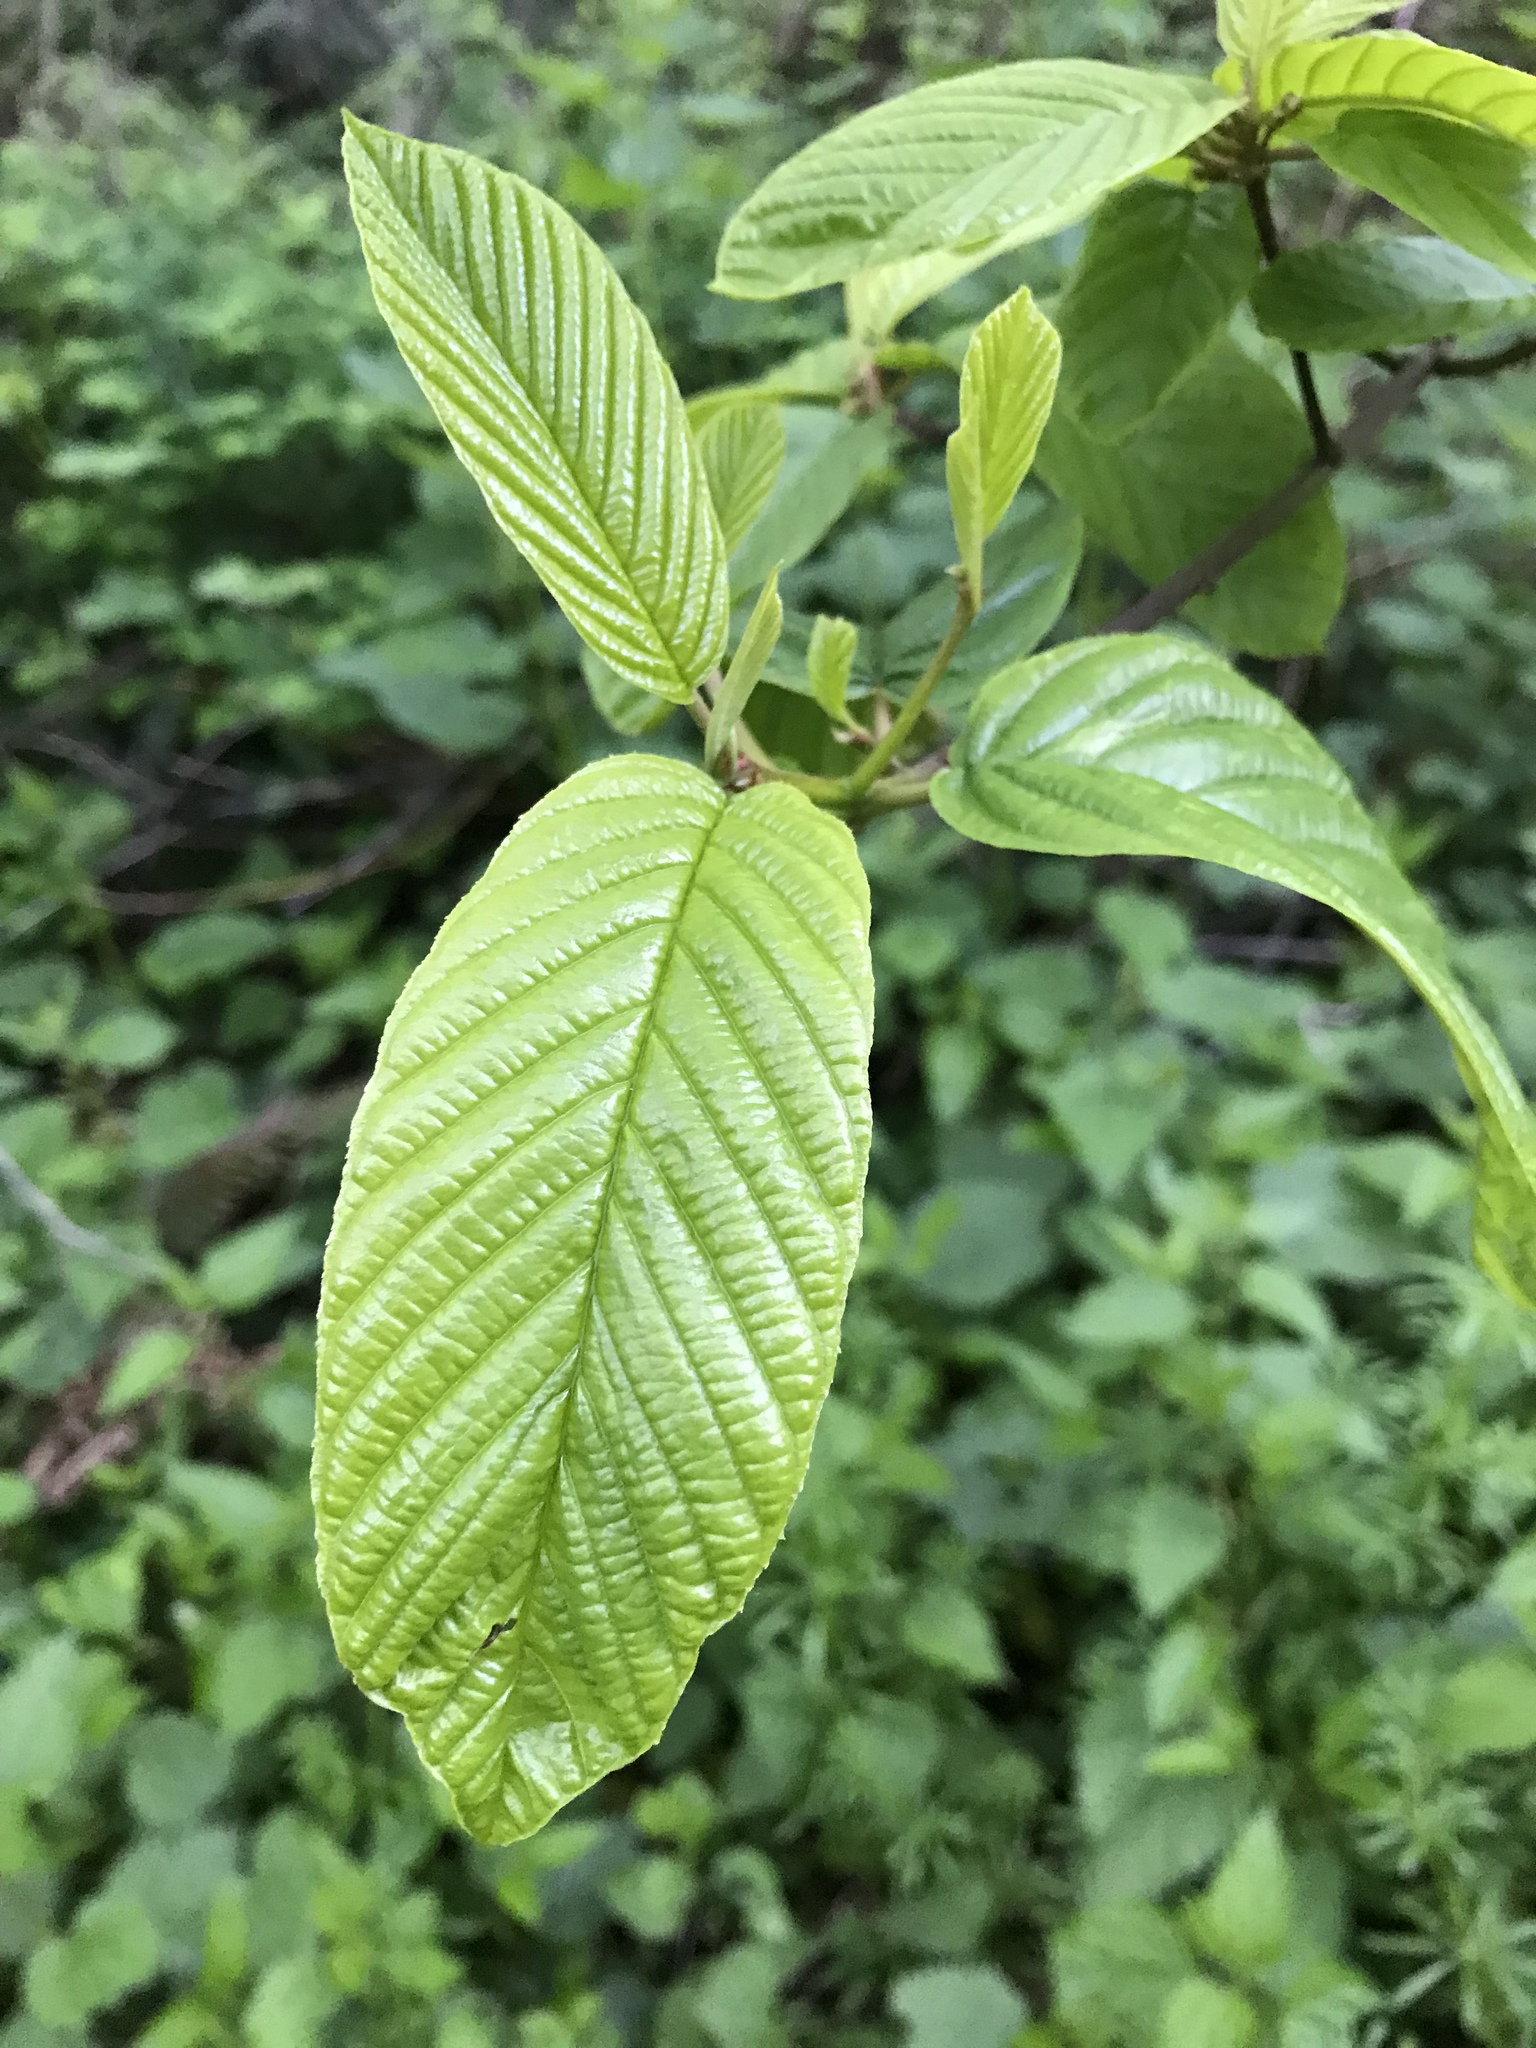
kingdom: Plantae
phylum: Tracheophyta
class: Magnoliopsida
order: Rosales
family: Rhamnaceae
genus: Frangula
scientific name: Frangula purshiana
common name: Cascara buckthorn
